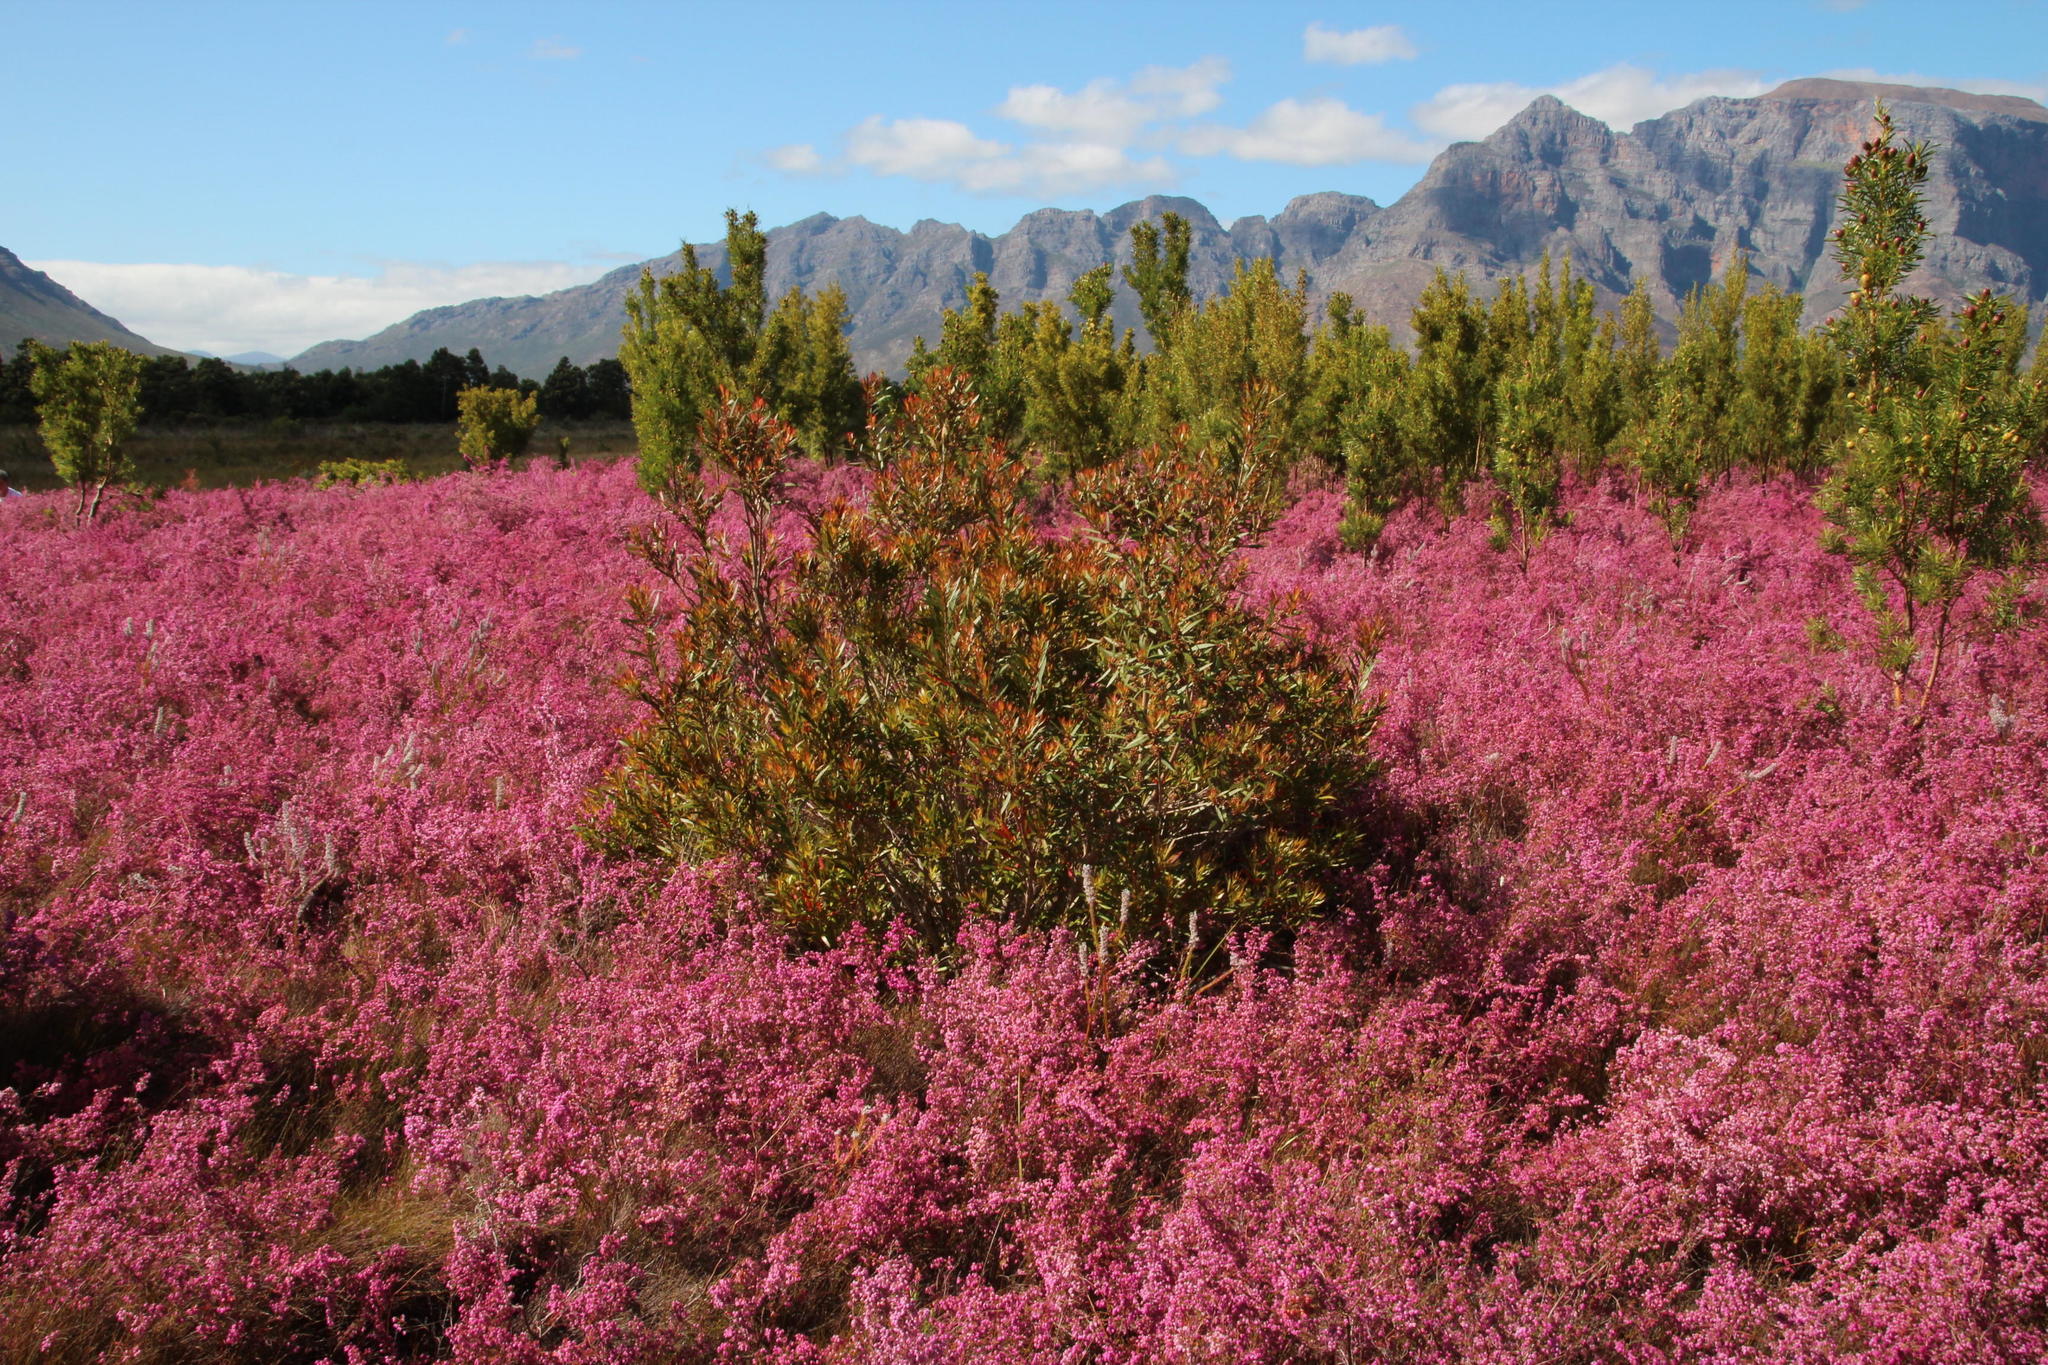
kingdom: Plantae
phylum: Tracheophyta
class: Magnoliopsida
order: Myrtales
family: Myrtaceae
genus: Callistemon
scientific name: Callistemon lanceolatus
